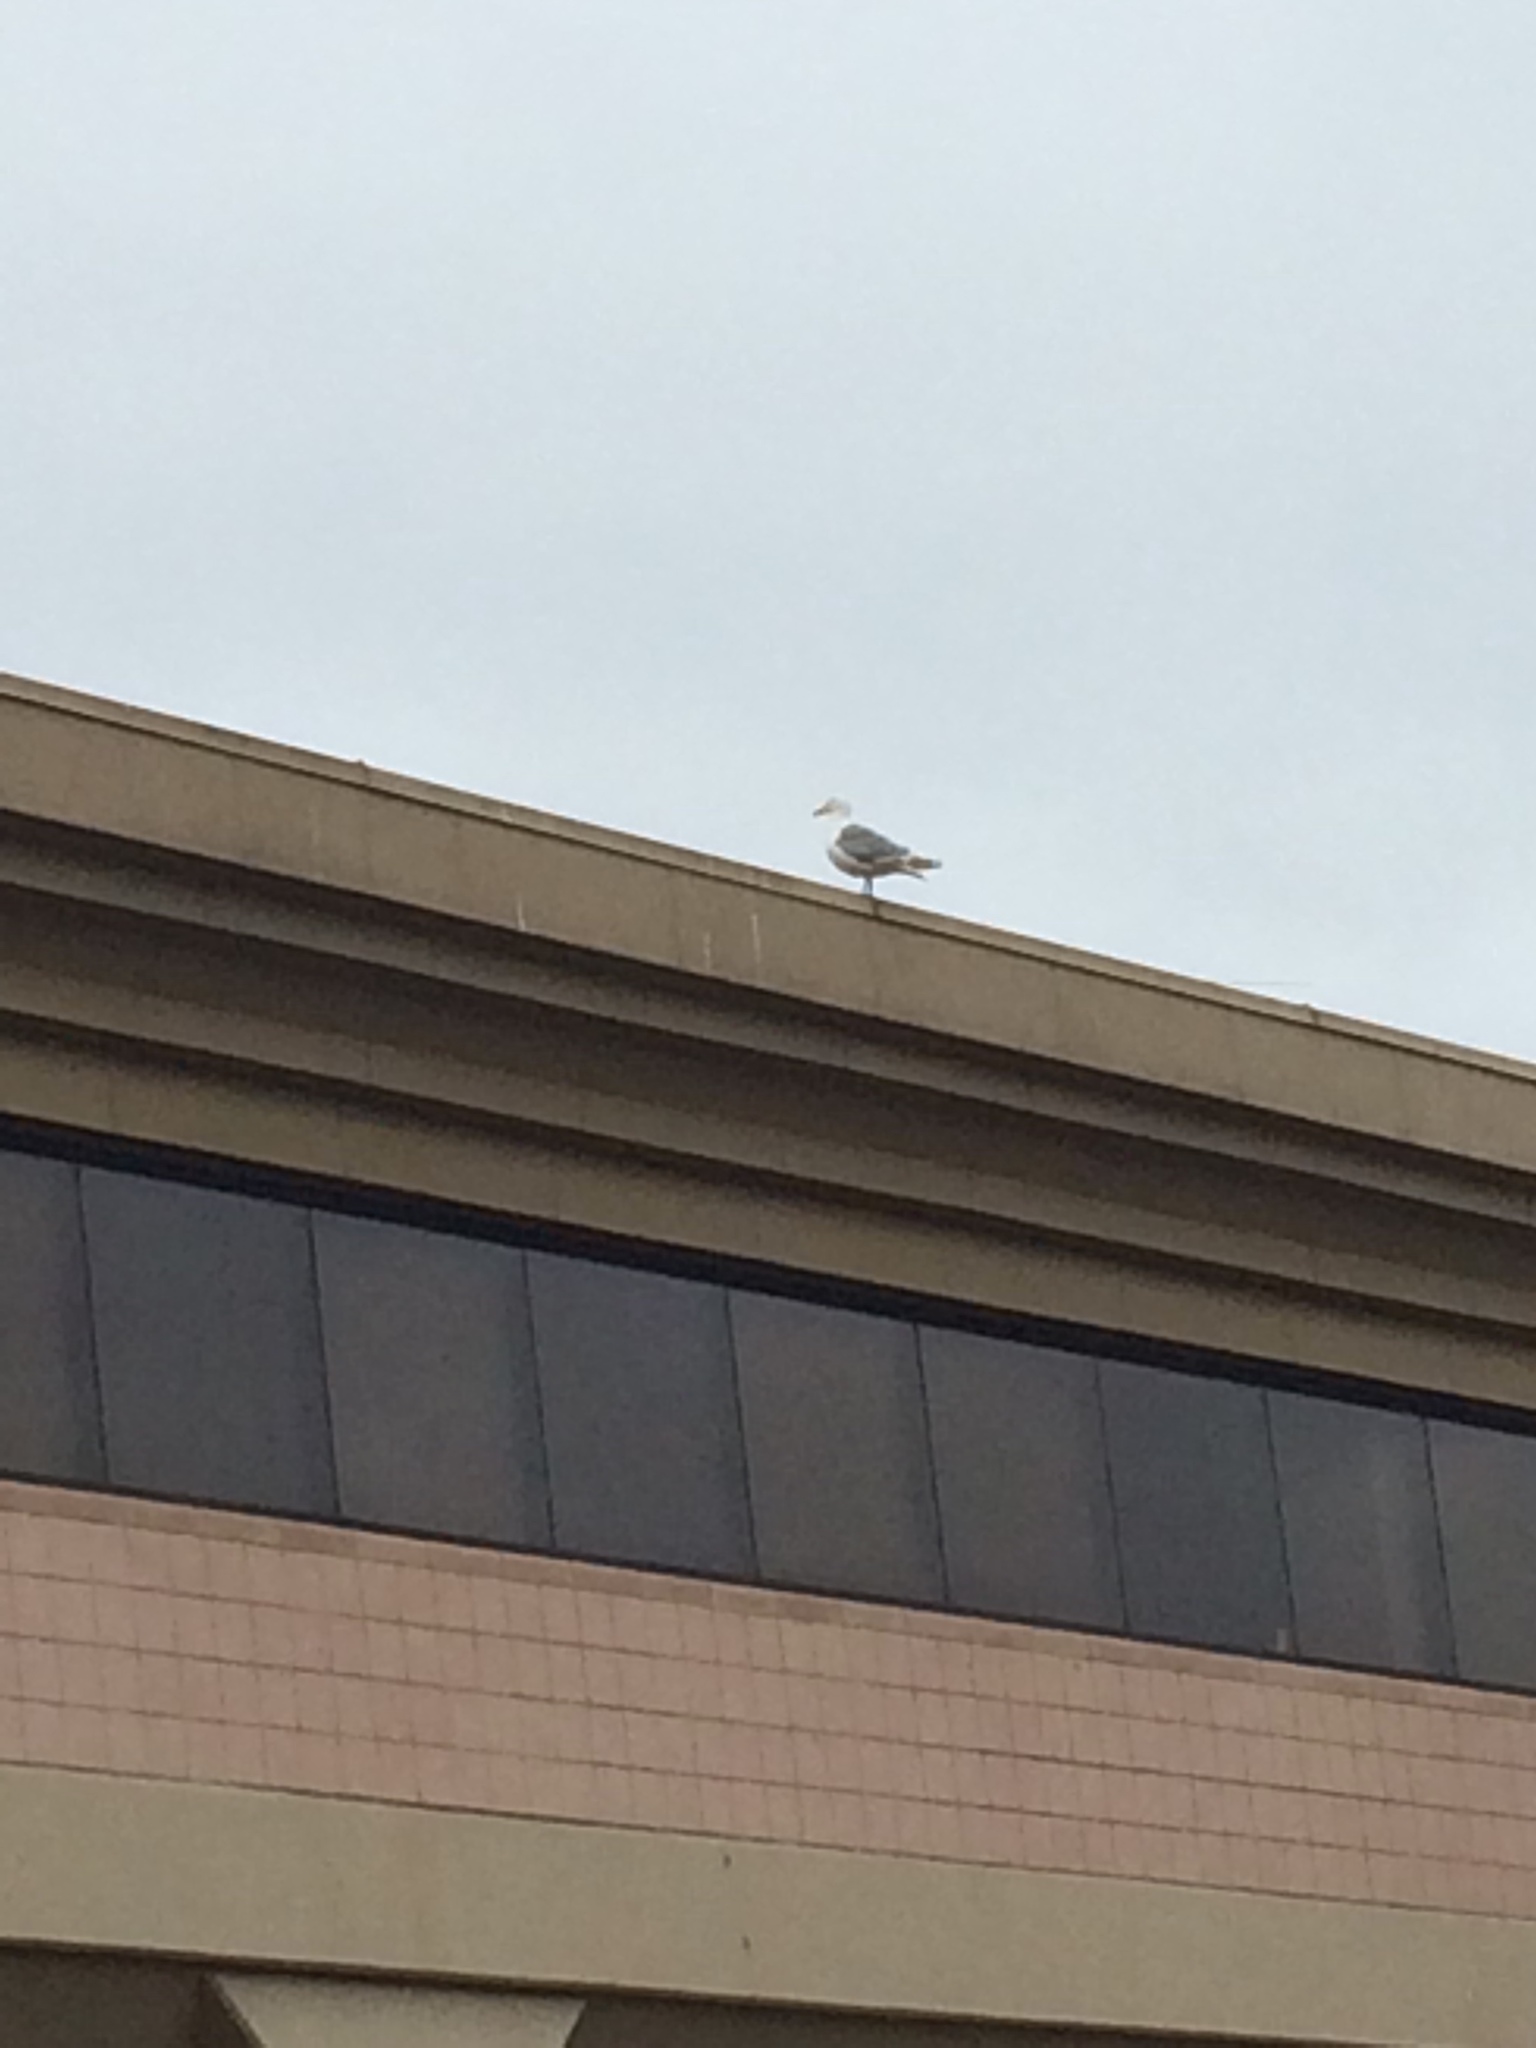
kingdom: Animalia
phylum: Chordata
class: Aves
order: Charadriiformes
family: Laridae
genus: Larus
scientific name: Larus glaucescens
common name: Glaucous-winged gull
